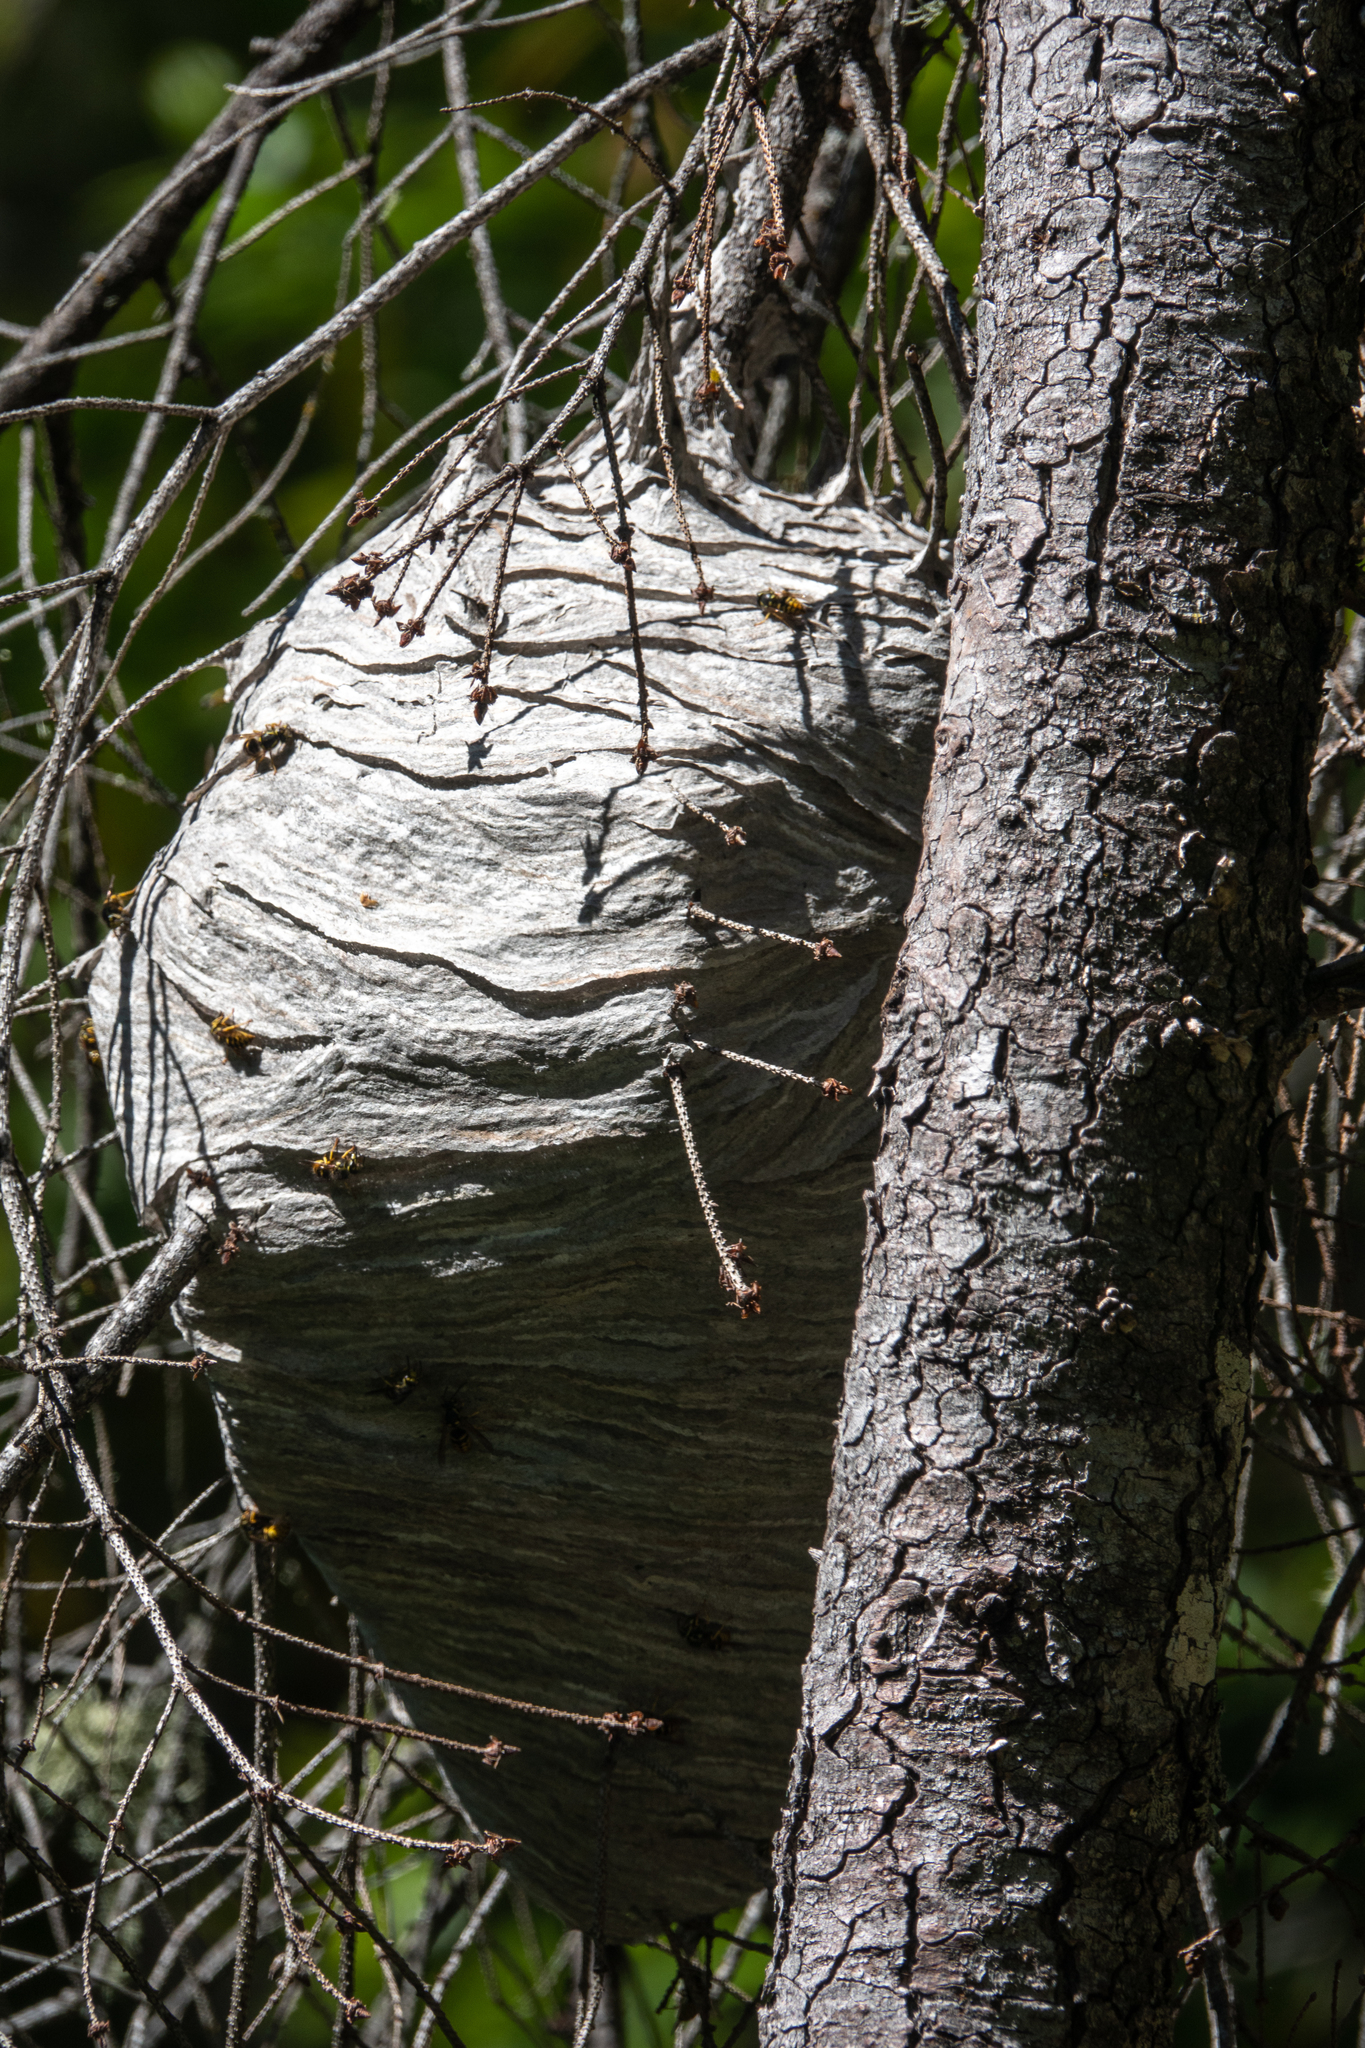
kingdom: Animalia
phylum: Arthropoda
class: Insecta
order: Hymenoptera
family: Vespidae
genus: Dolichovespula
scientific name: Dolichovespula arenaria
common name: Aerial yellowjacket
